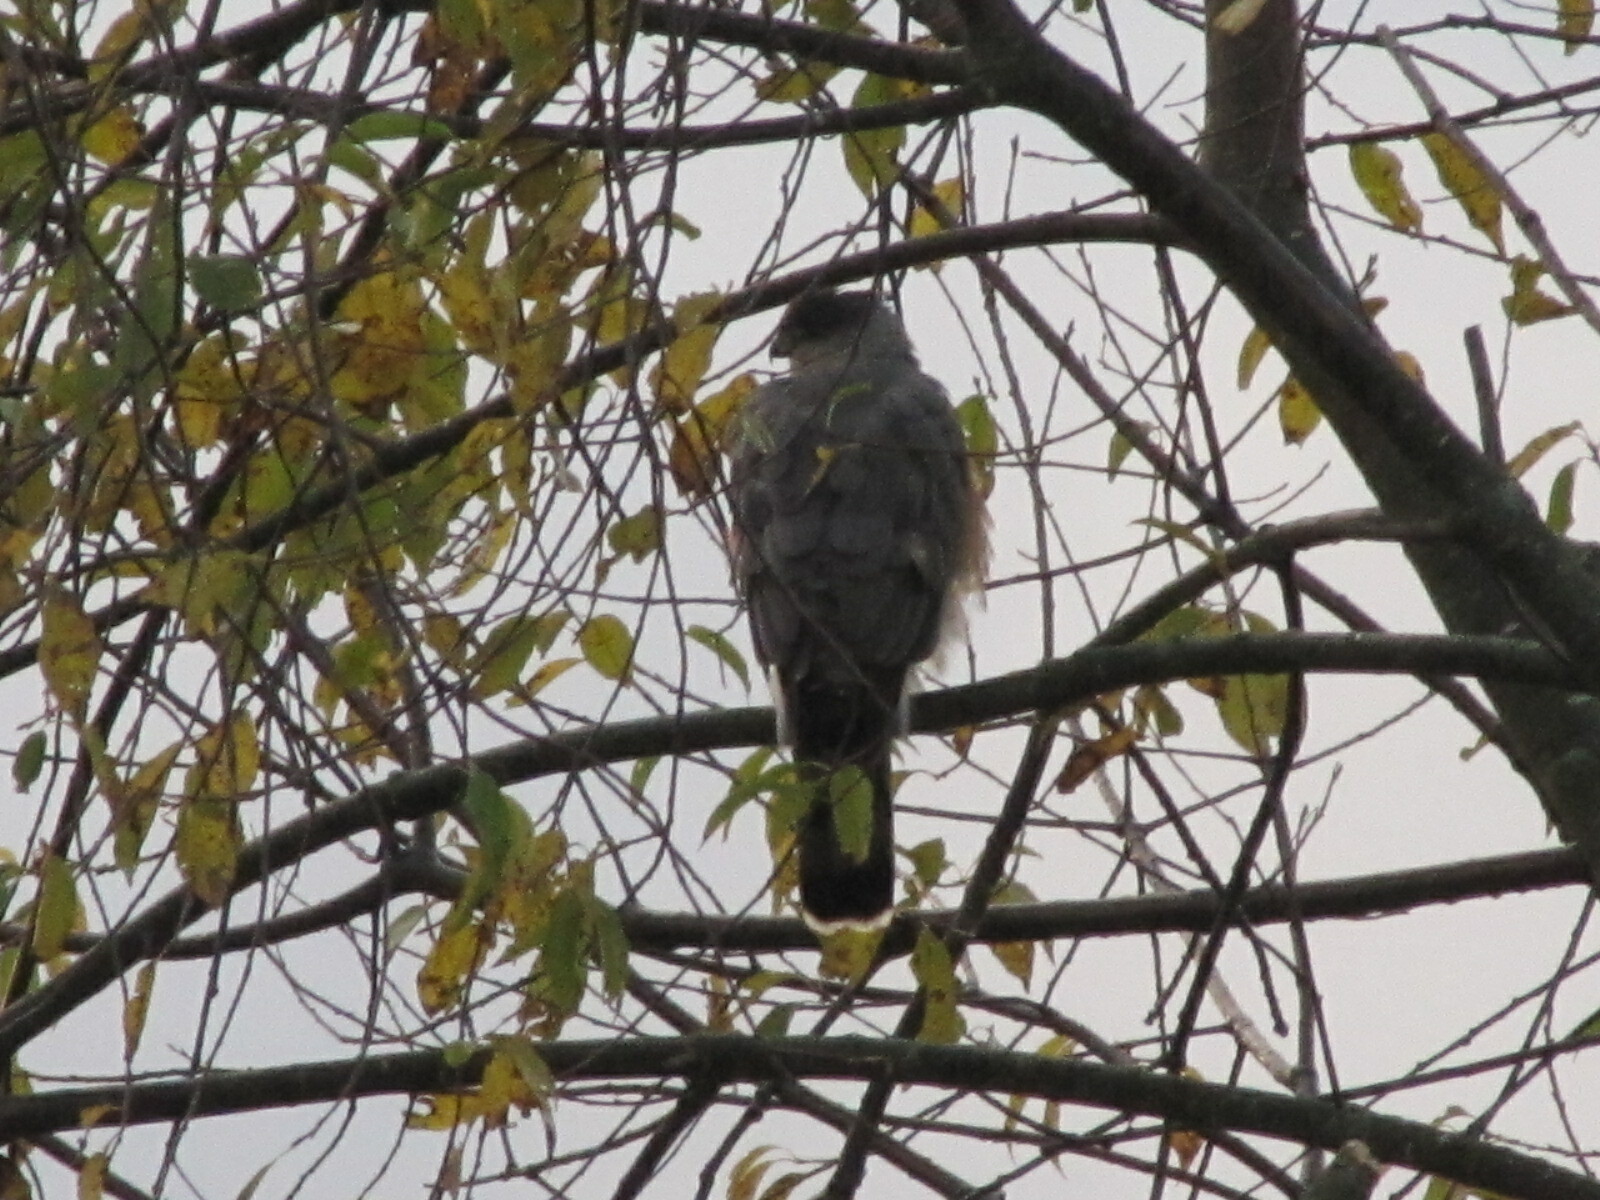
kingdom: Animalia
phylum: Chordata
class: Aves
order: Accipitriformes
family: Accipitridae
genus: Accipiter
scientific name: Accipiter cooperii
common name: Cooper's hawk
